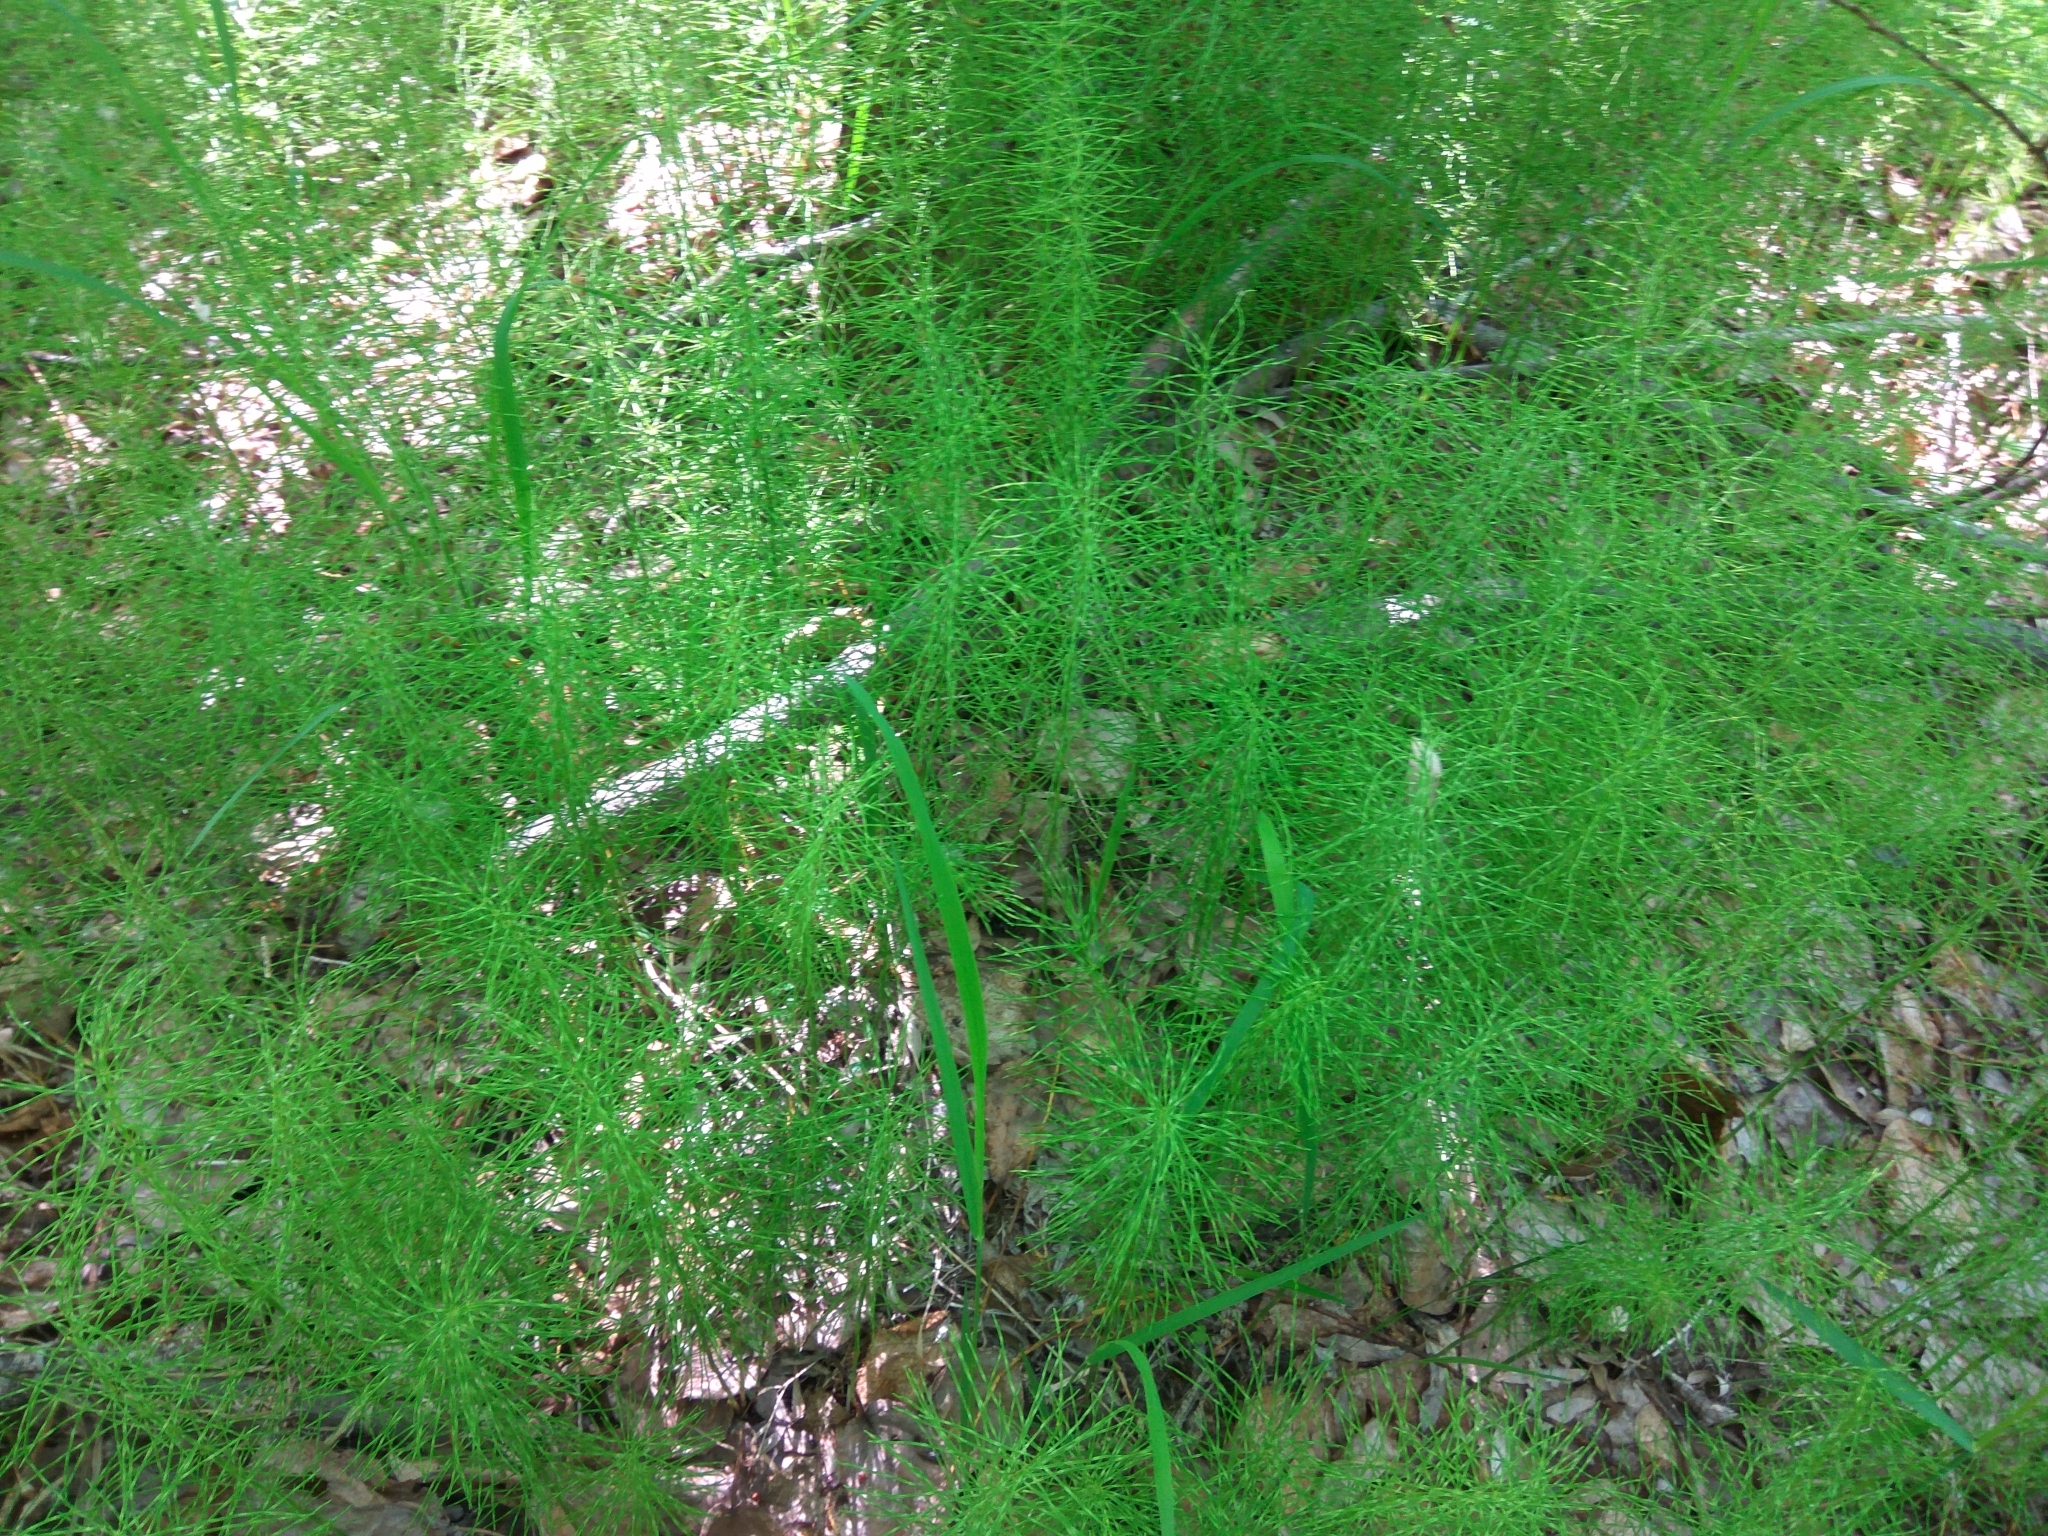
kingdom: Plantae
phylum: Tracheophyta
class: Polypodiopsida
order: Equisetales
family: Equisetaceae
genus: Equisetum
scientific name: Equisetum pratense
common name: Meadow horsetail
